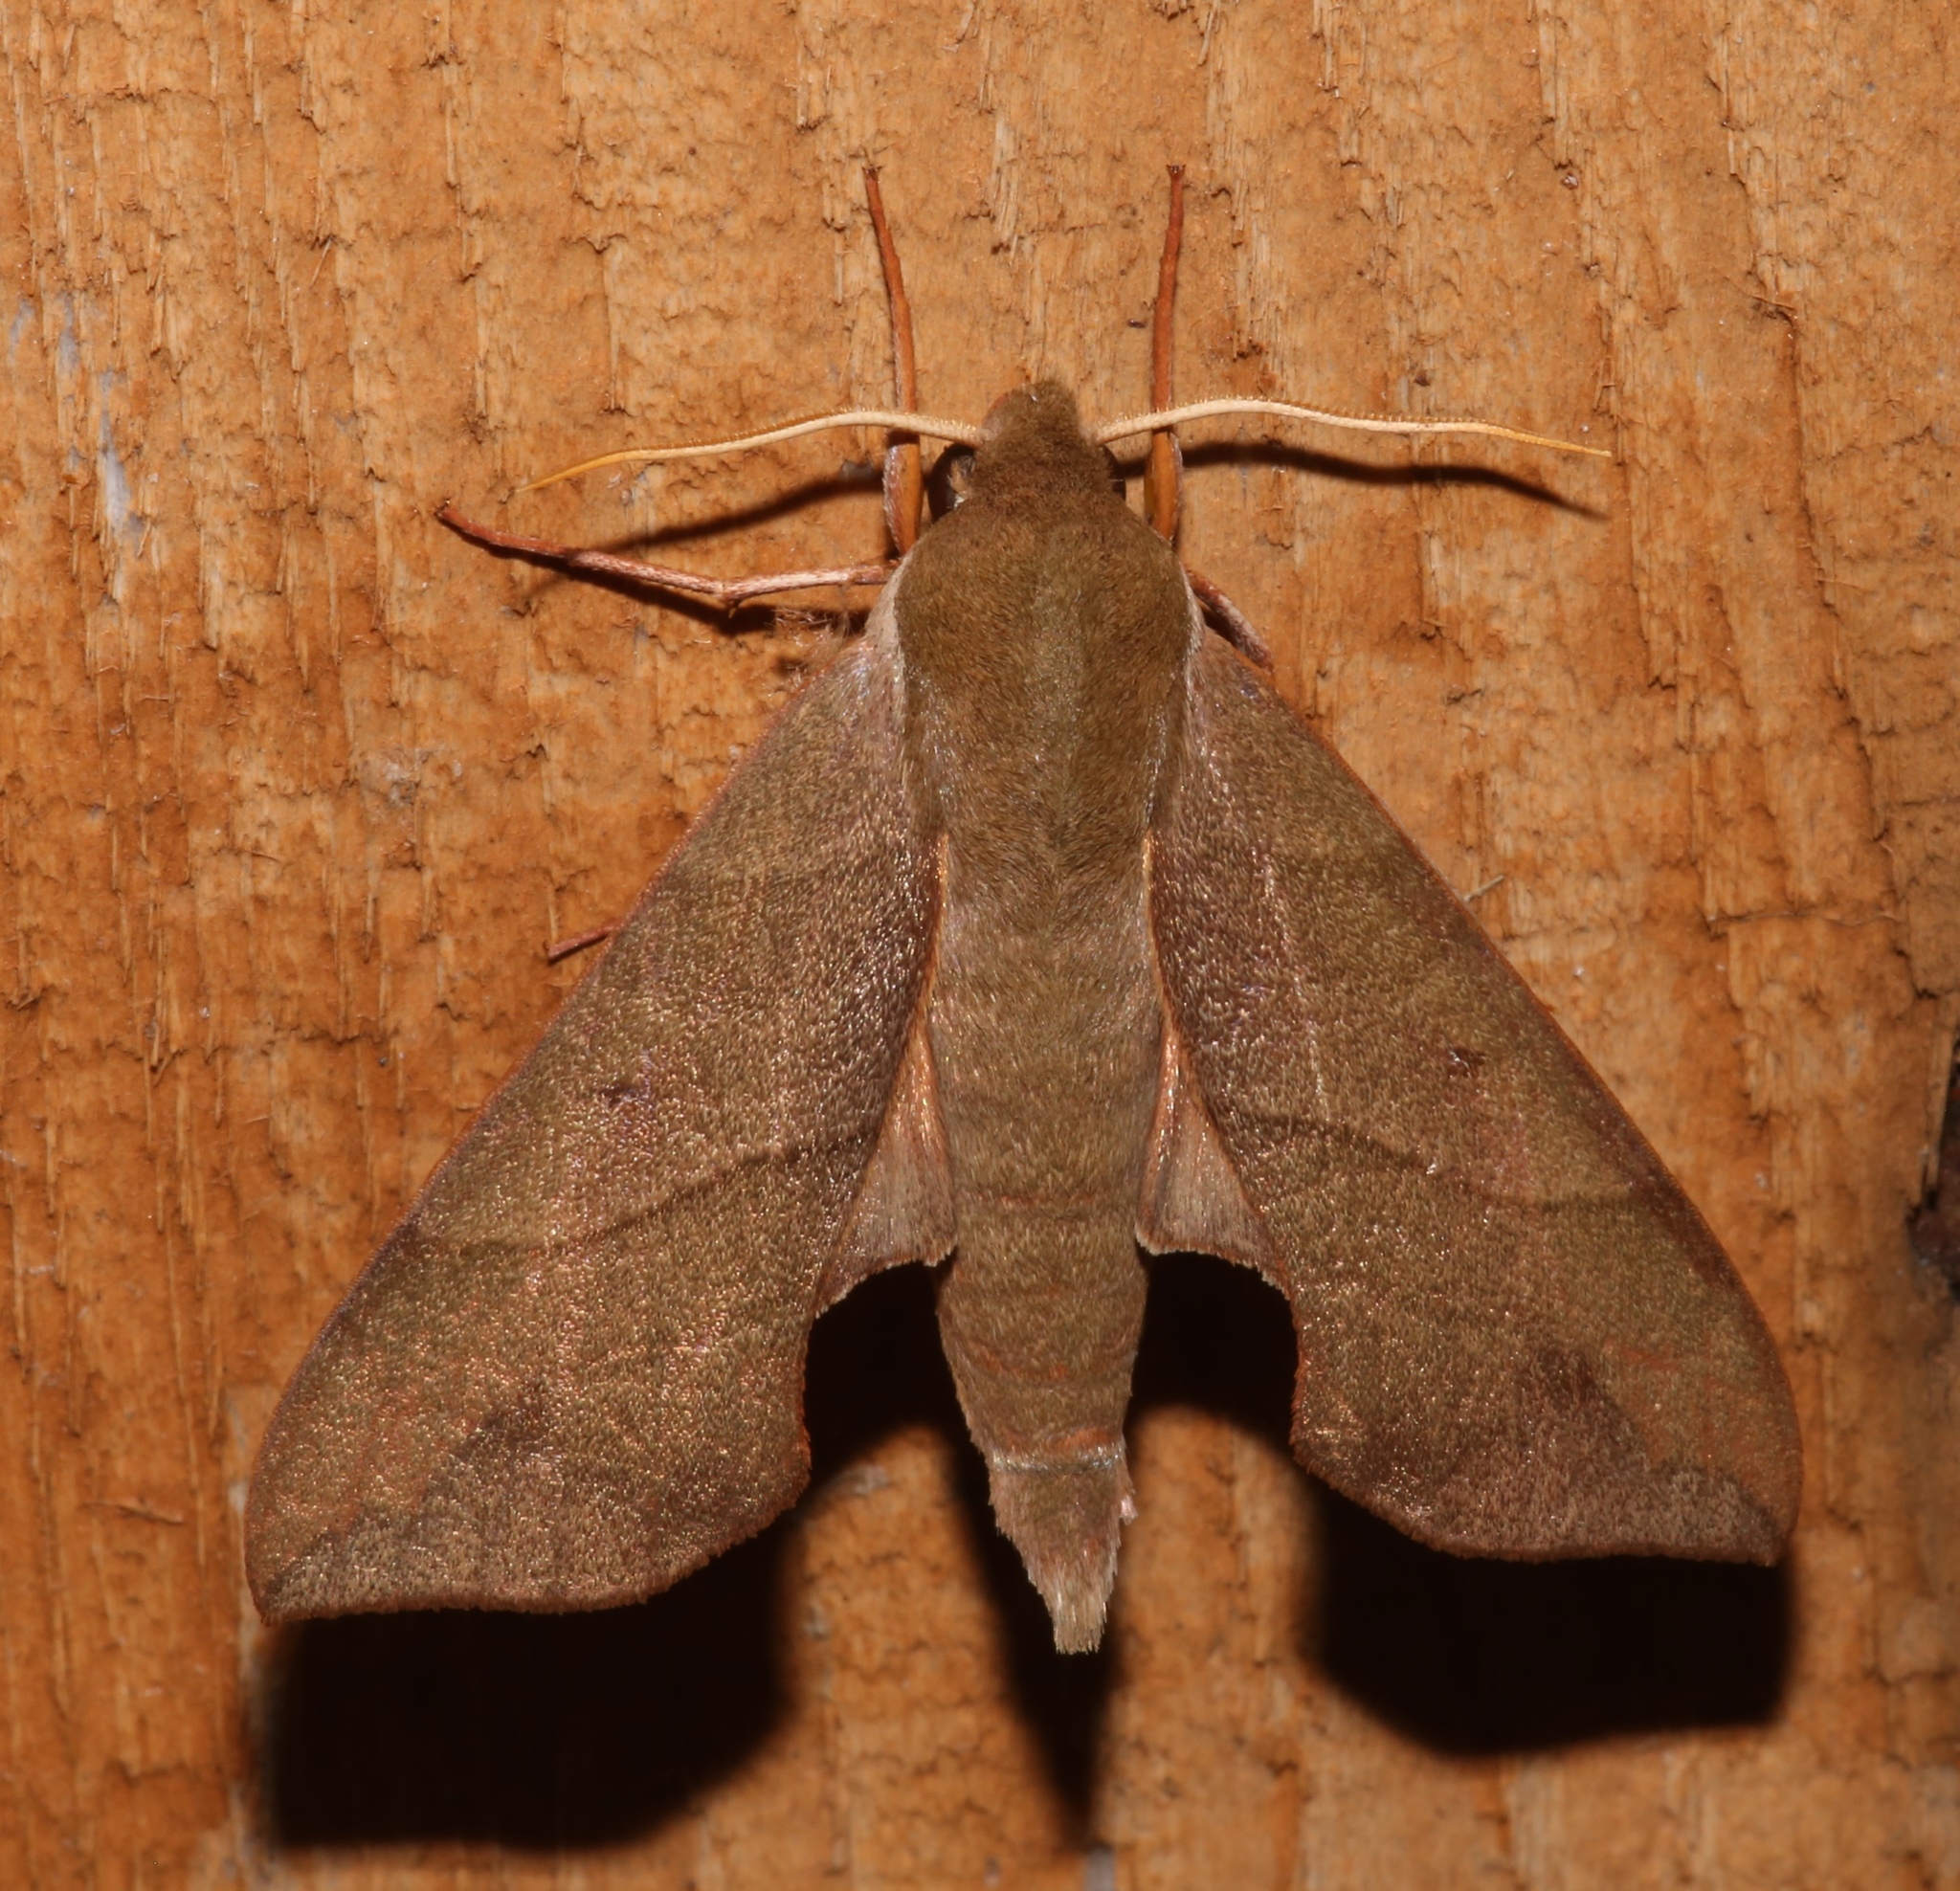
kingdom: Animalia
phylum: Arthropoda
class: Insecta
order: Lepidoptera
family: Sphingidae
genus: Darapsa
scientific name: Darapsa myron
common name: Hog sphinx
